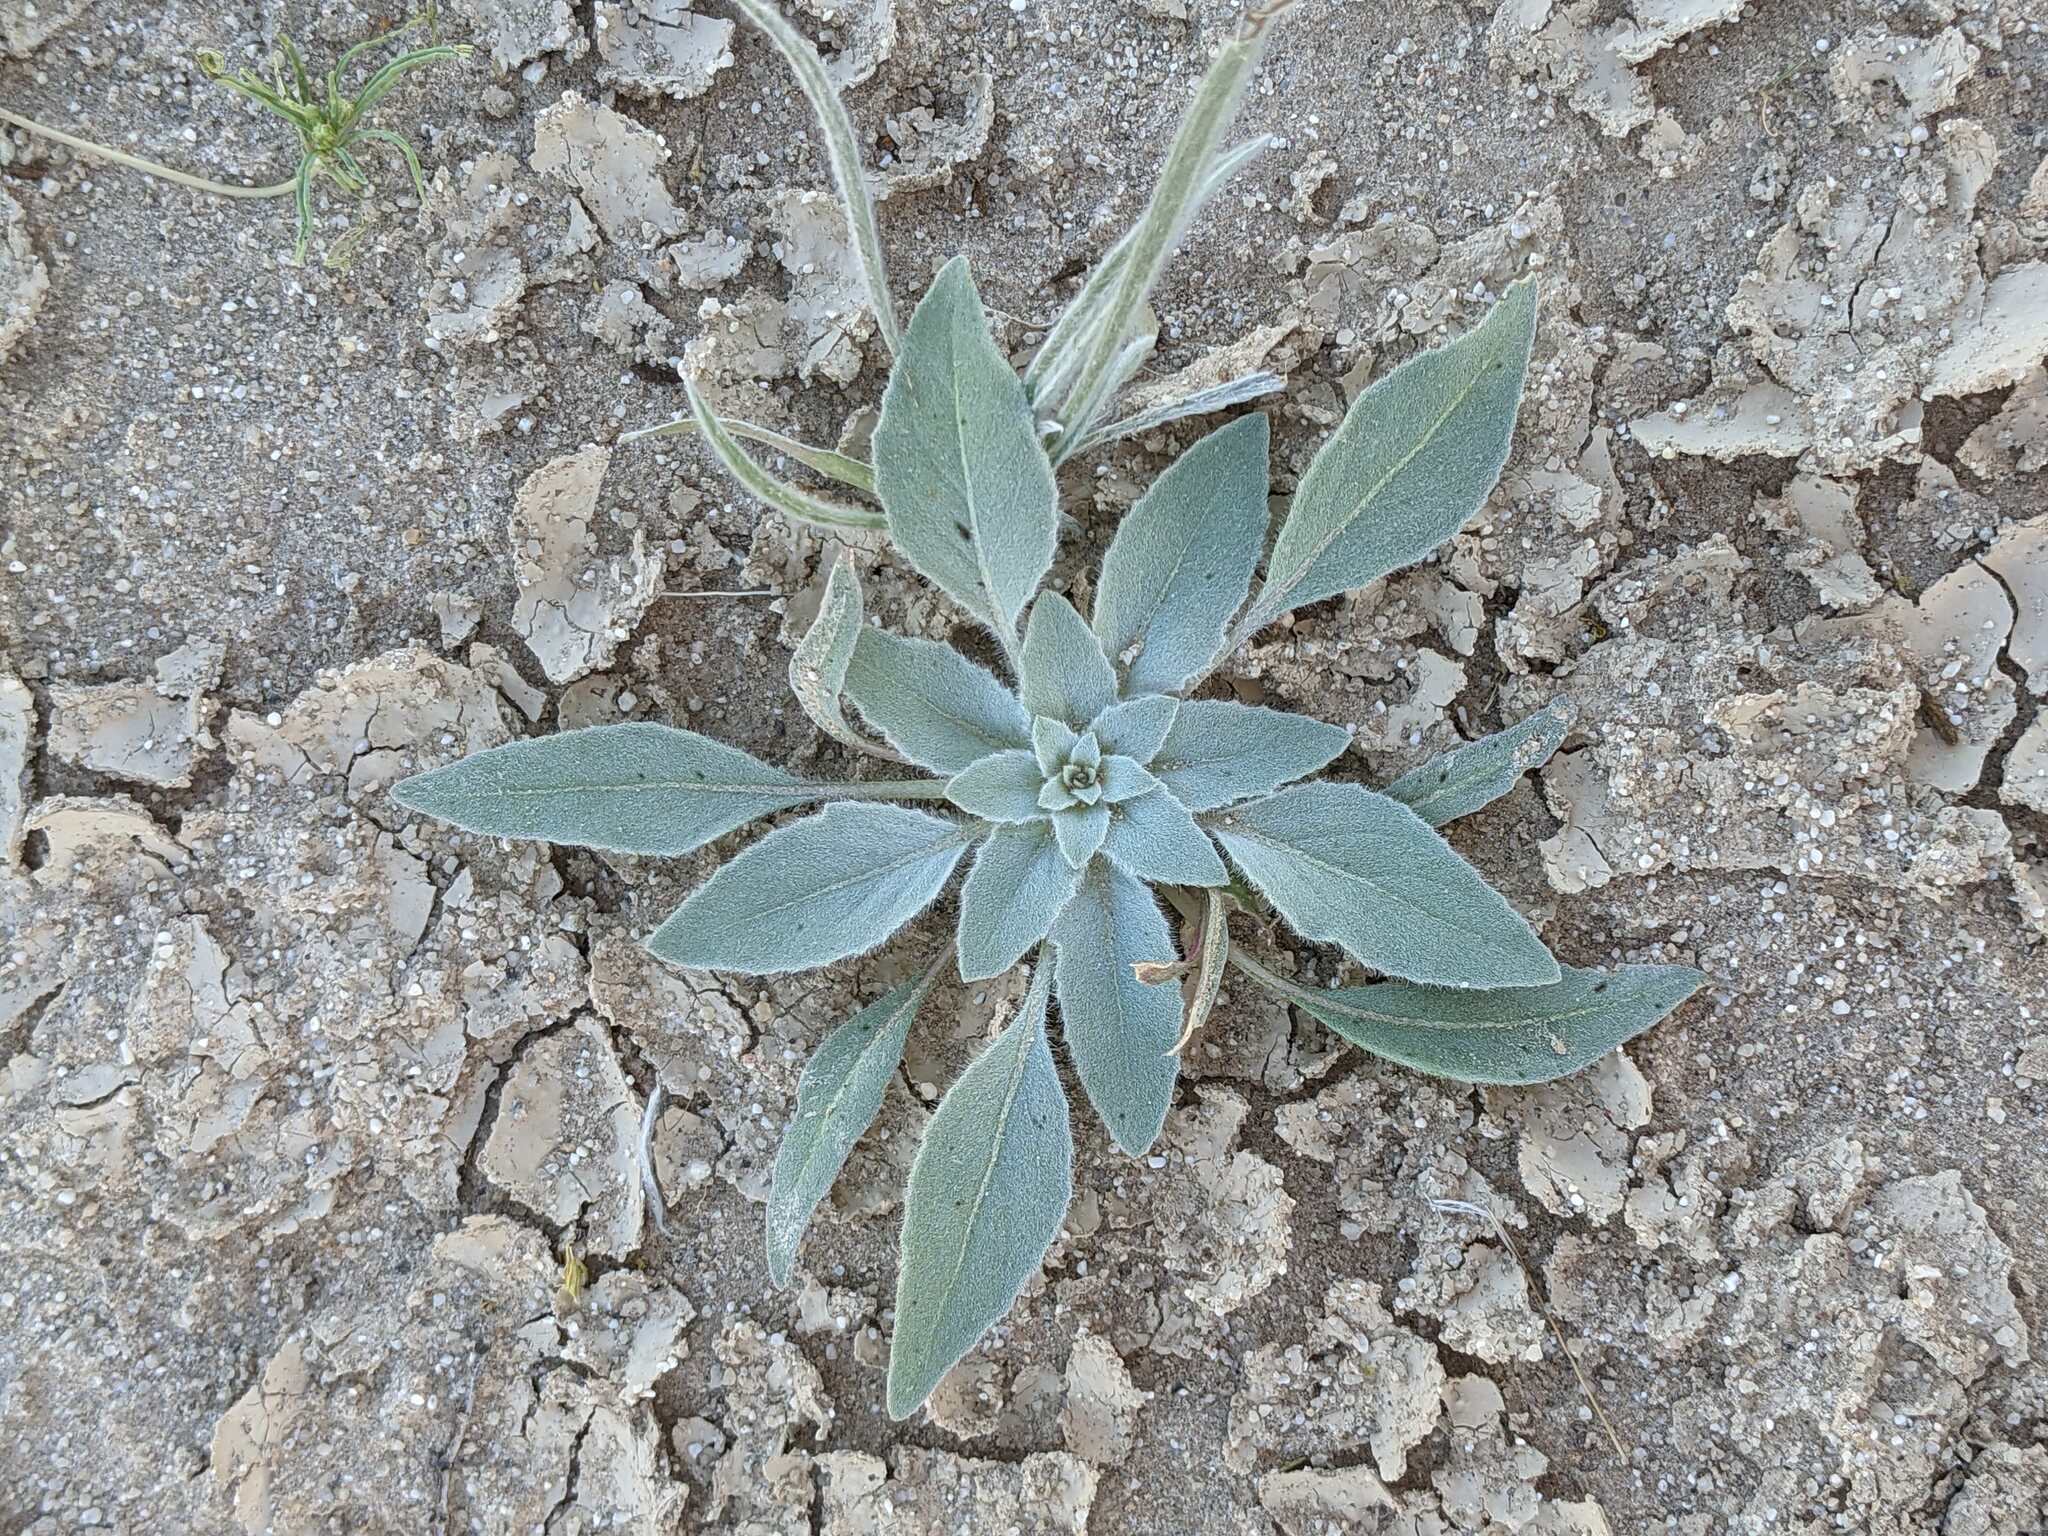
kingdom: Plantae
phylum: Tracheophyta
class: Magnoliopsida
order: Myrtales
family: Onagraceae
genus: Oenothera
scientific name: Oenothera deltoides
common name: Basket evening-primrose
